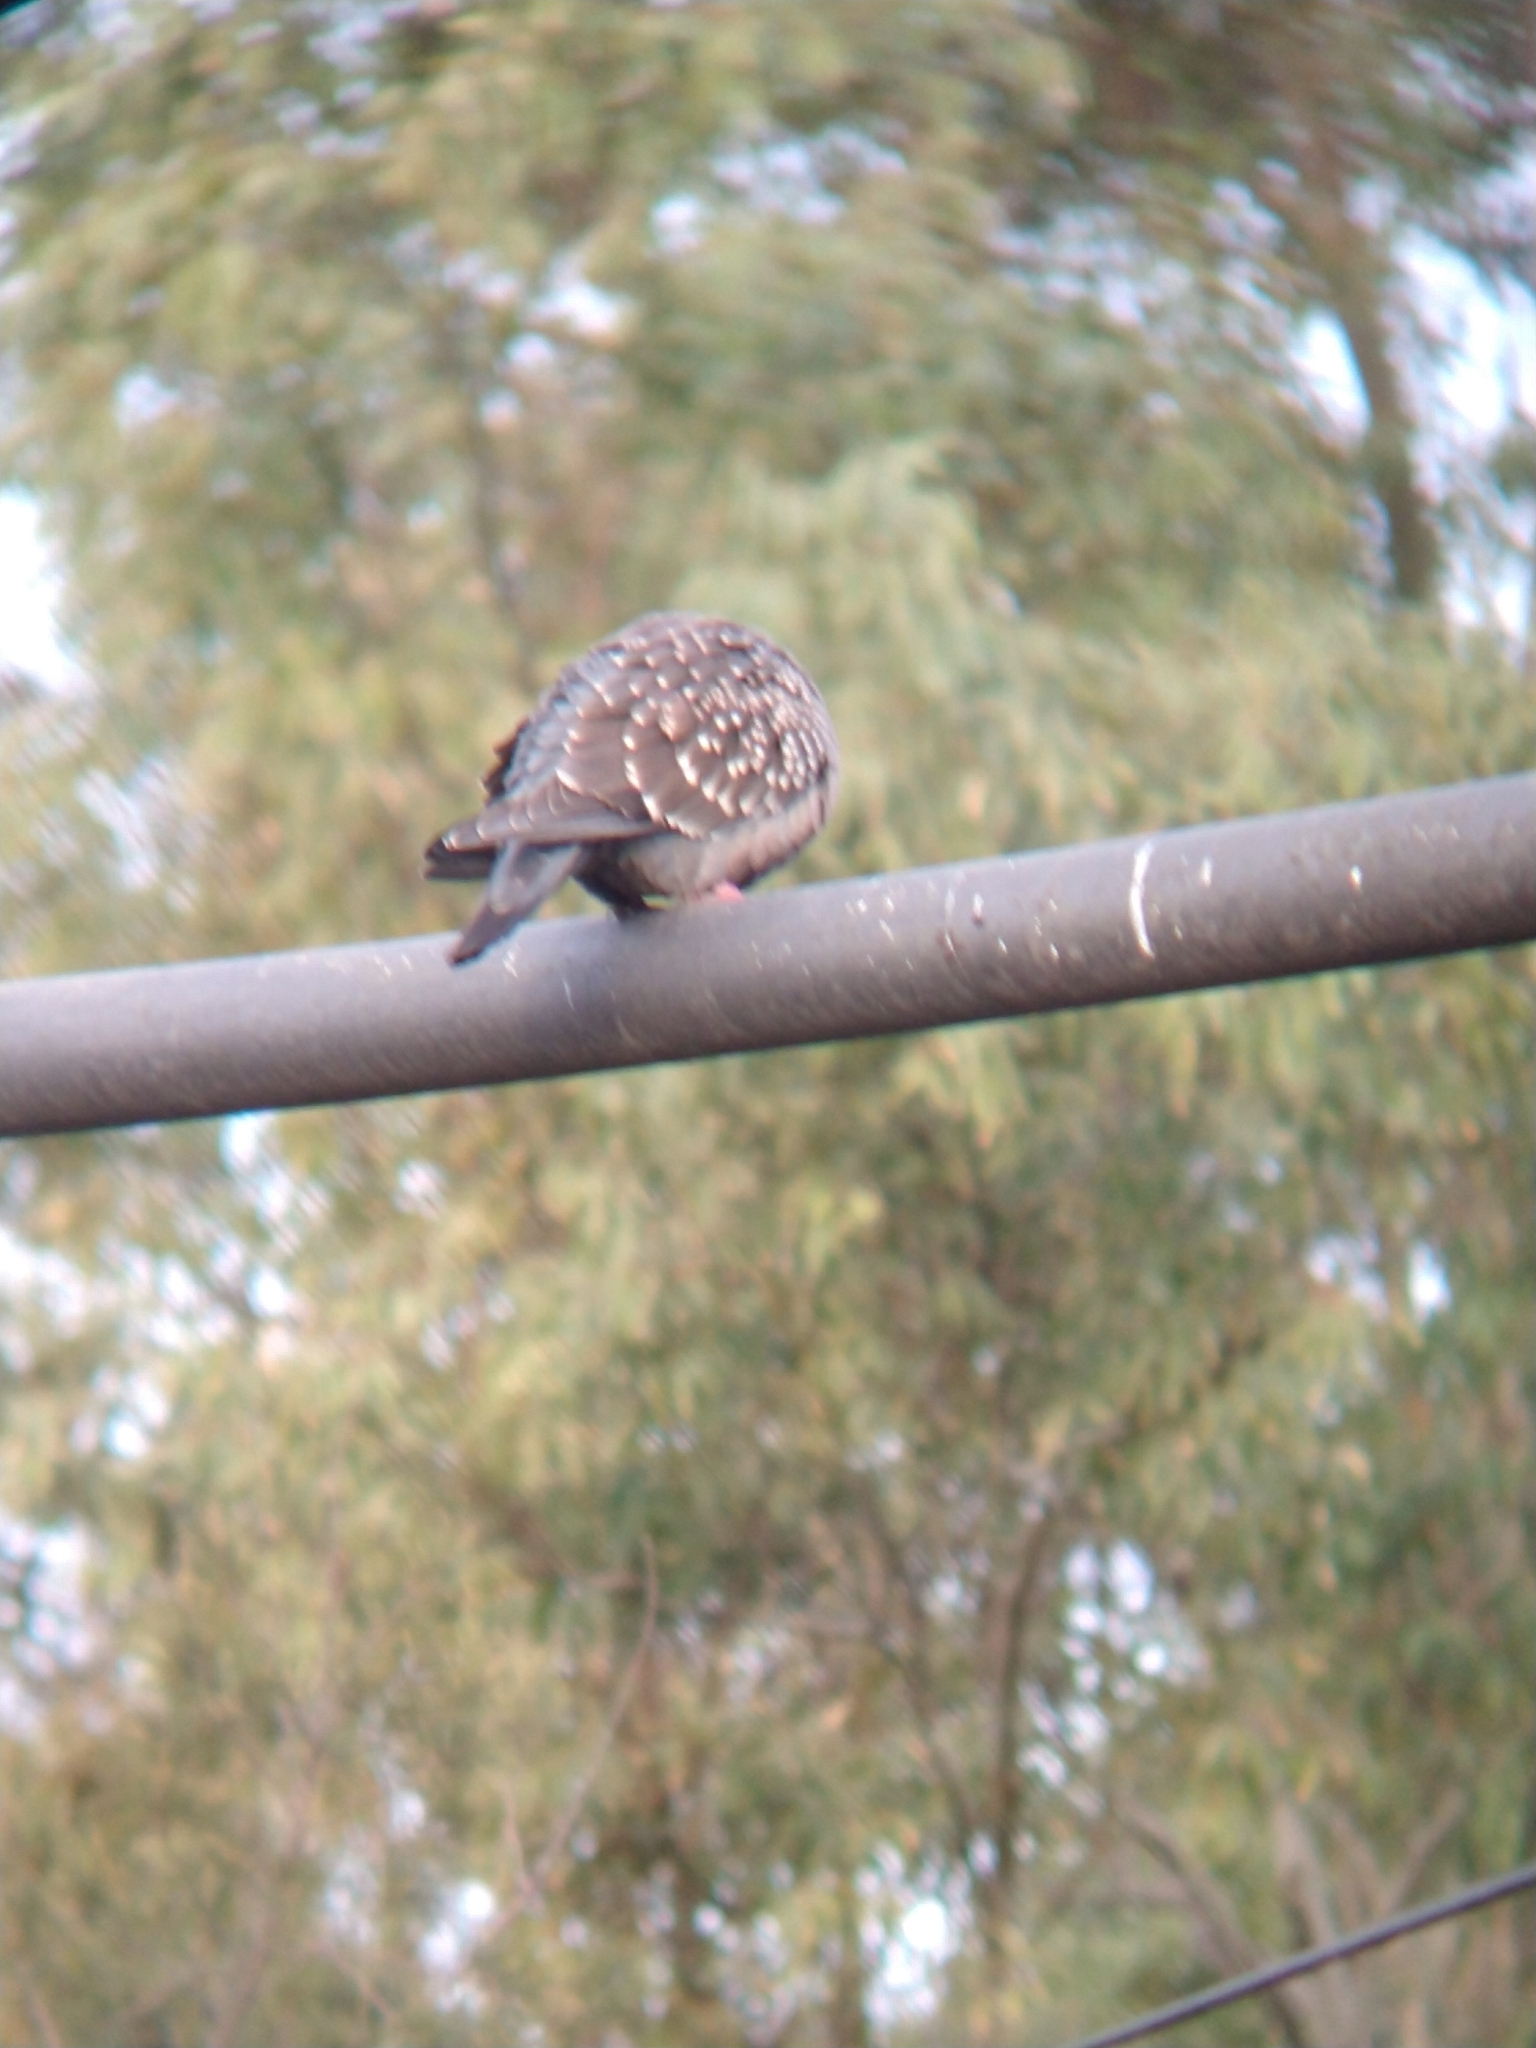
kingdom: Animalia
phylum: Chordata
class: Aves
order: Columbiformes
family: Columbidae
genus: Patagioenas
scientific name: Patagioenas maculosa
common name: Spot-winged pigeon
